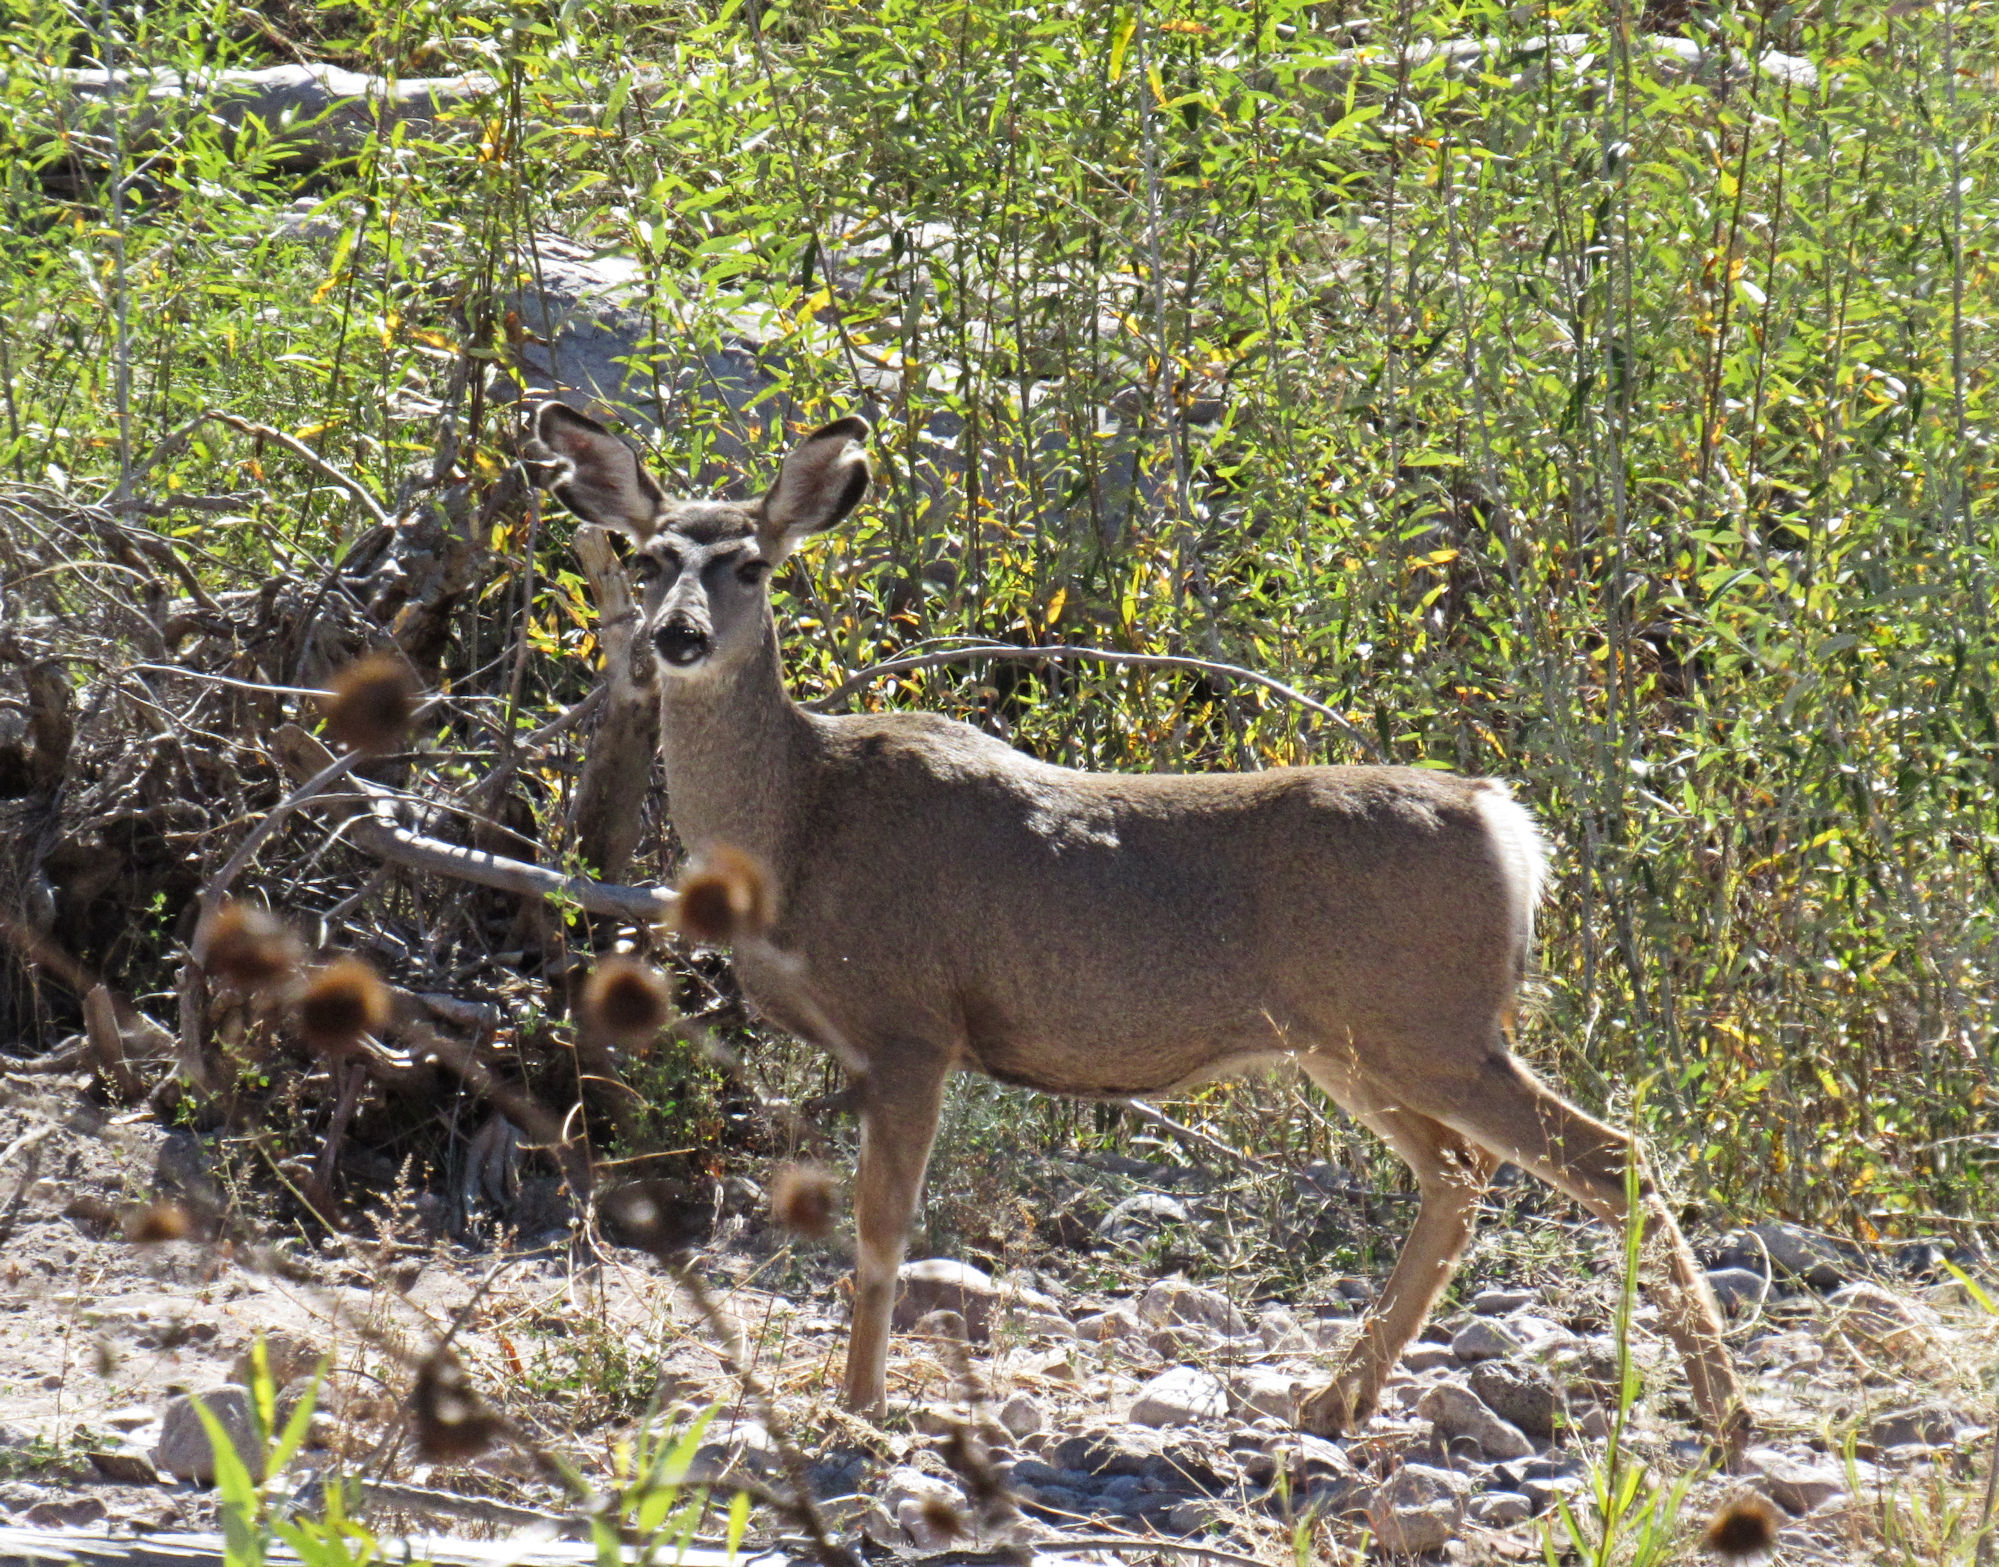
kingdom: Animalia
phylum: Chordata
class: Mammalia
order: Artiodactyla
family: Cervidae
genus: Odocoileus
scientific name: Odocoileus hemionus
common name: Mule deer
